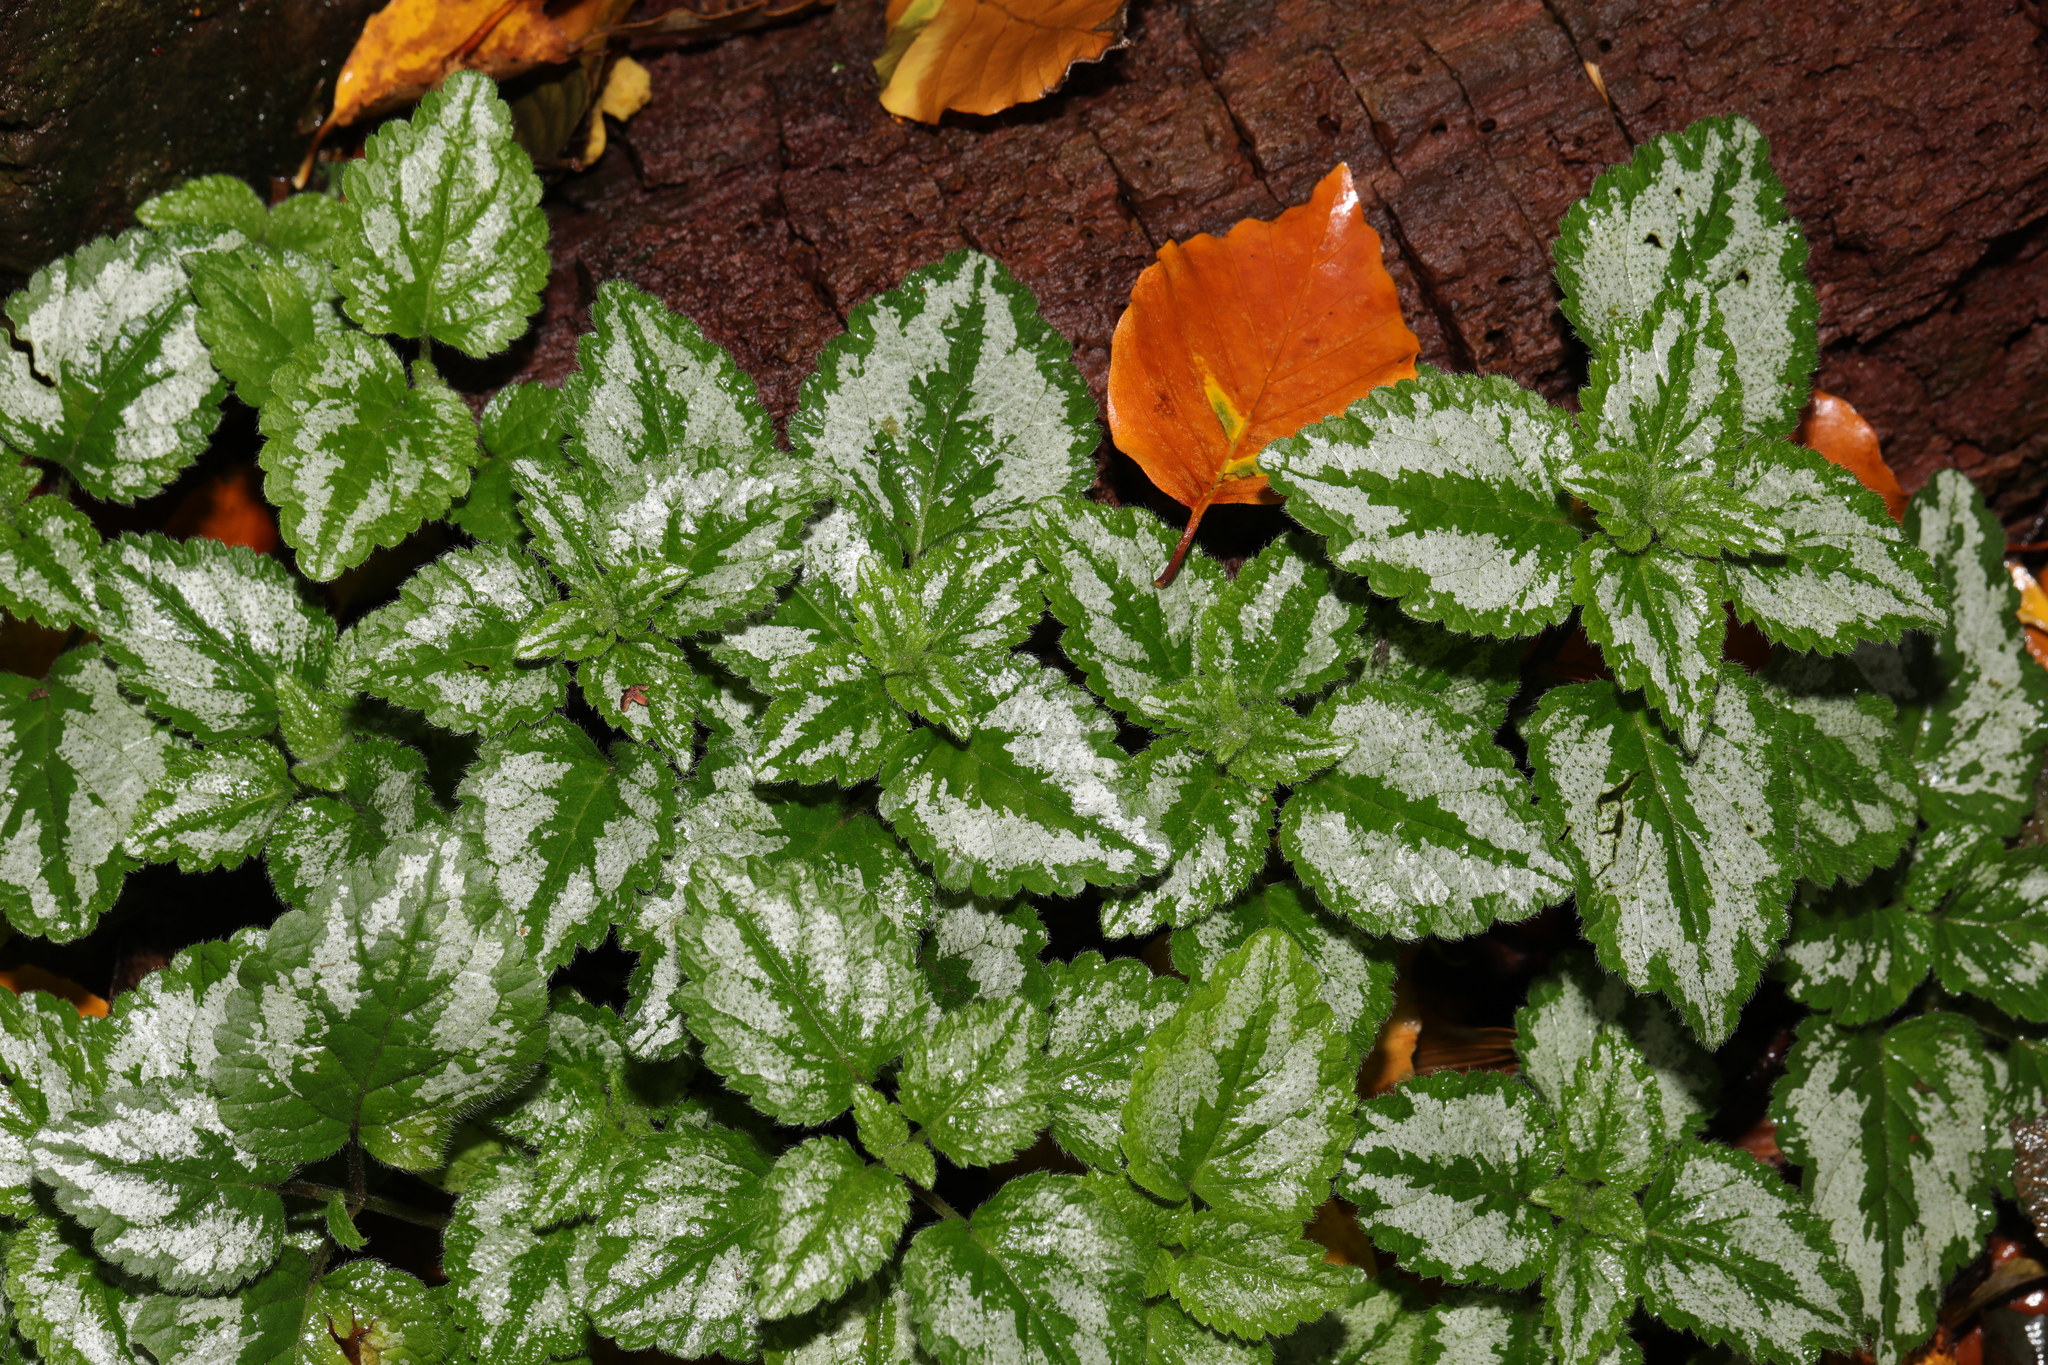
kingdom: Plantae
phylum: Tracheophyta
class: Magnoliopsida
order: Lamiales
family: Lamiaceae
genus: Lamium
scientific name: Lamium galeobdolon
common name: Yellow archangel
